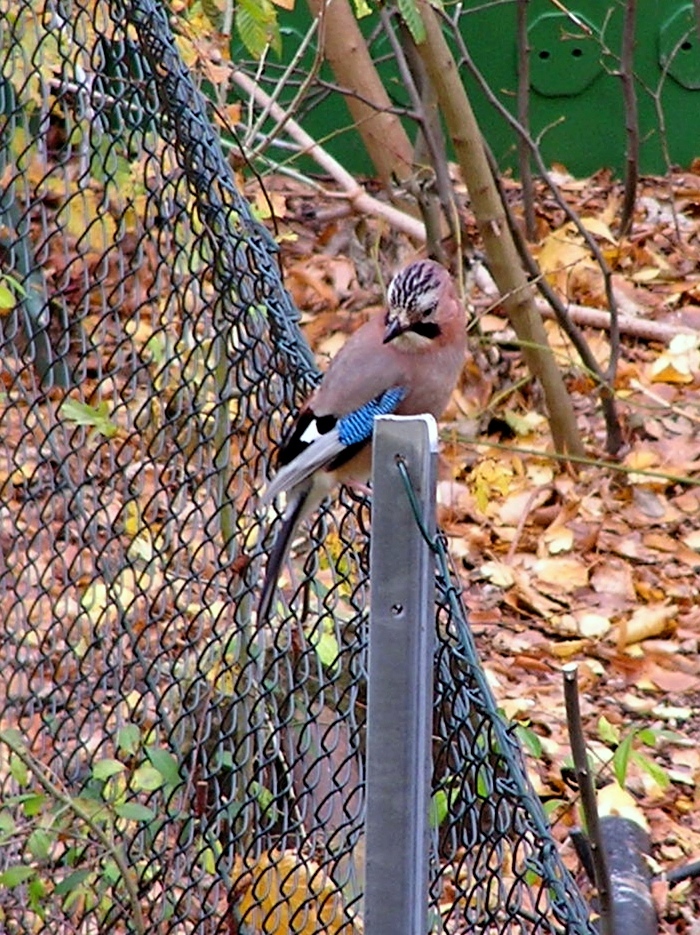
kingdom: Animalia
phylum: Chordata
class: Aves
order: Passeriformes
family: Corvidae
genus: Garrulus
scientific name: Garrulus glandarius
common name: Eurasian jay
